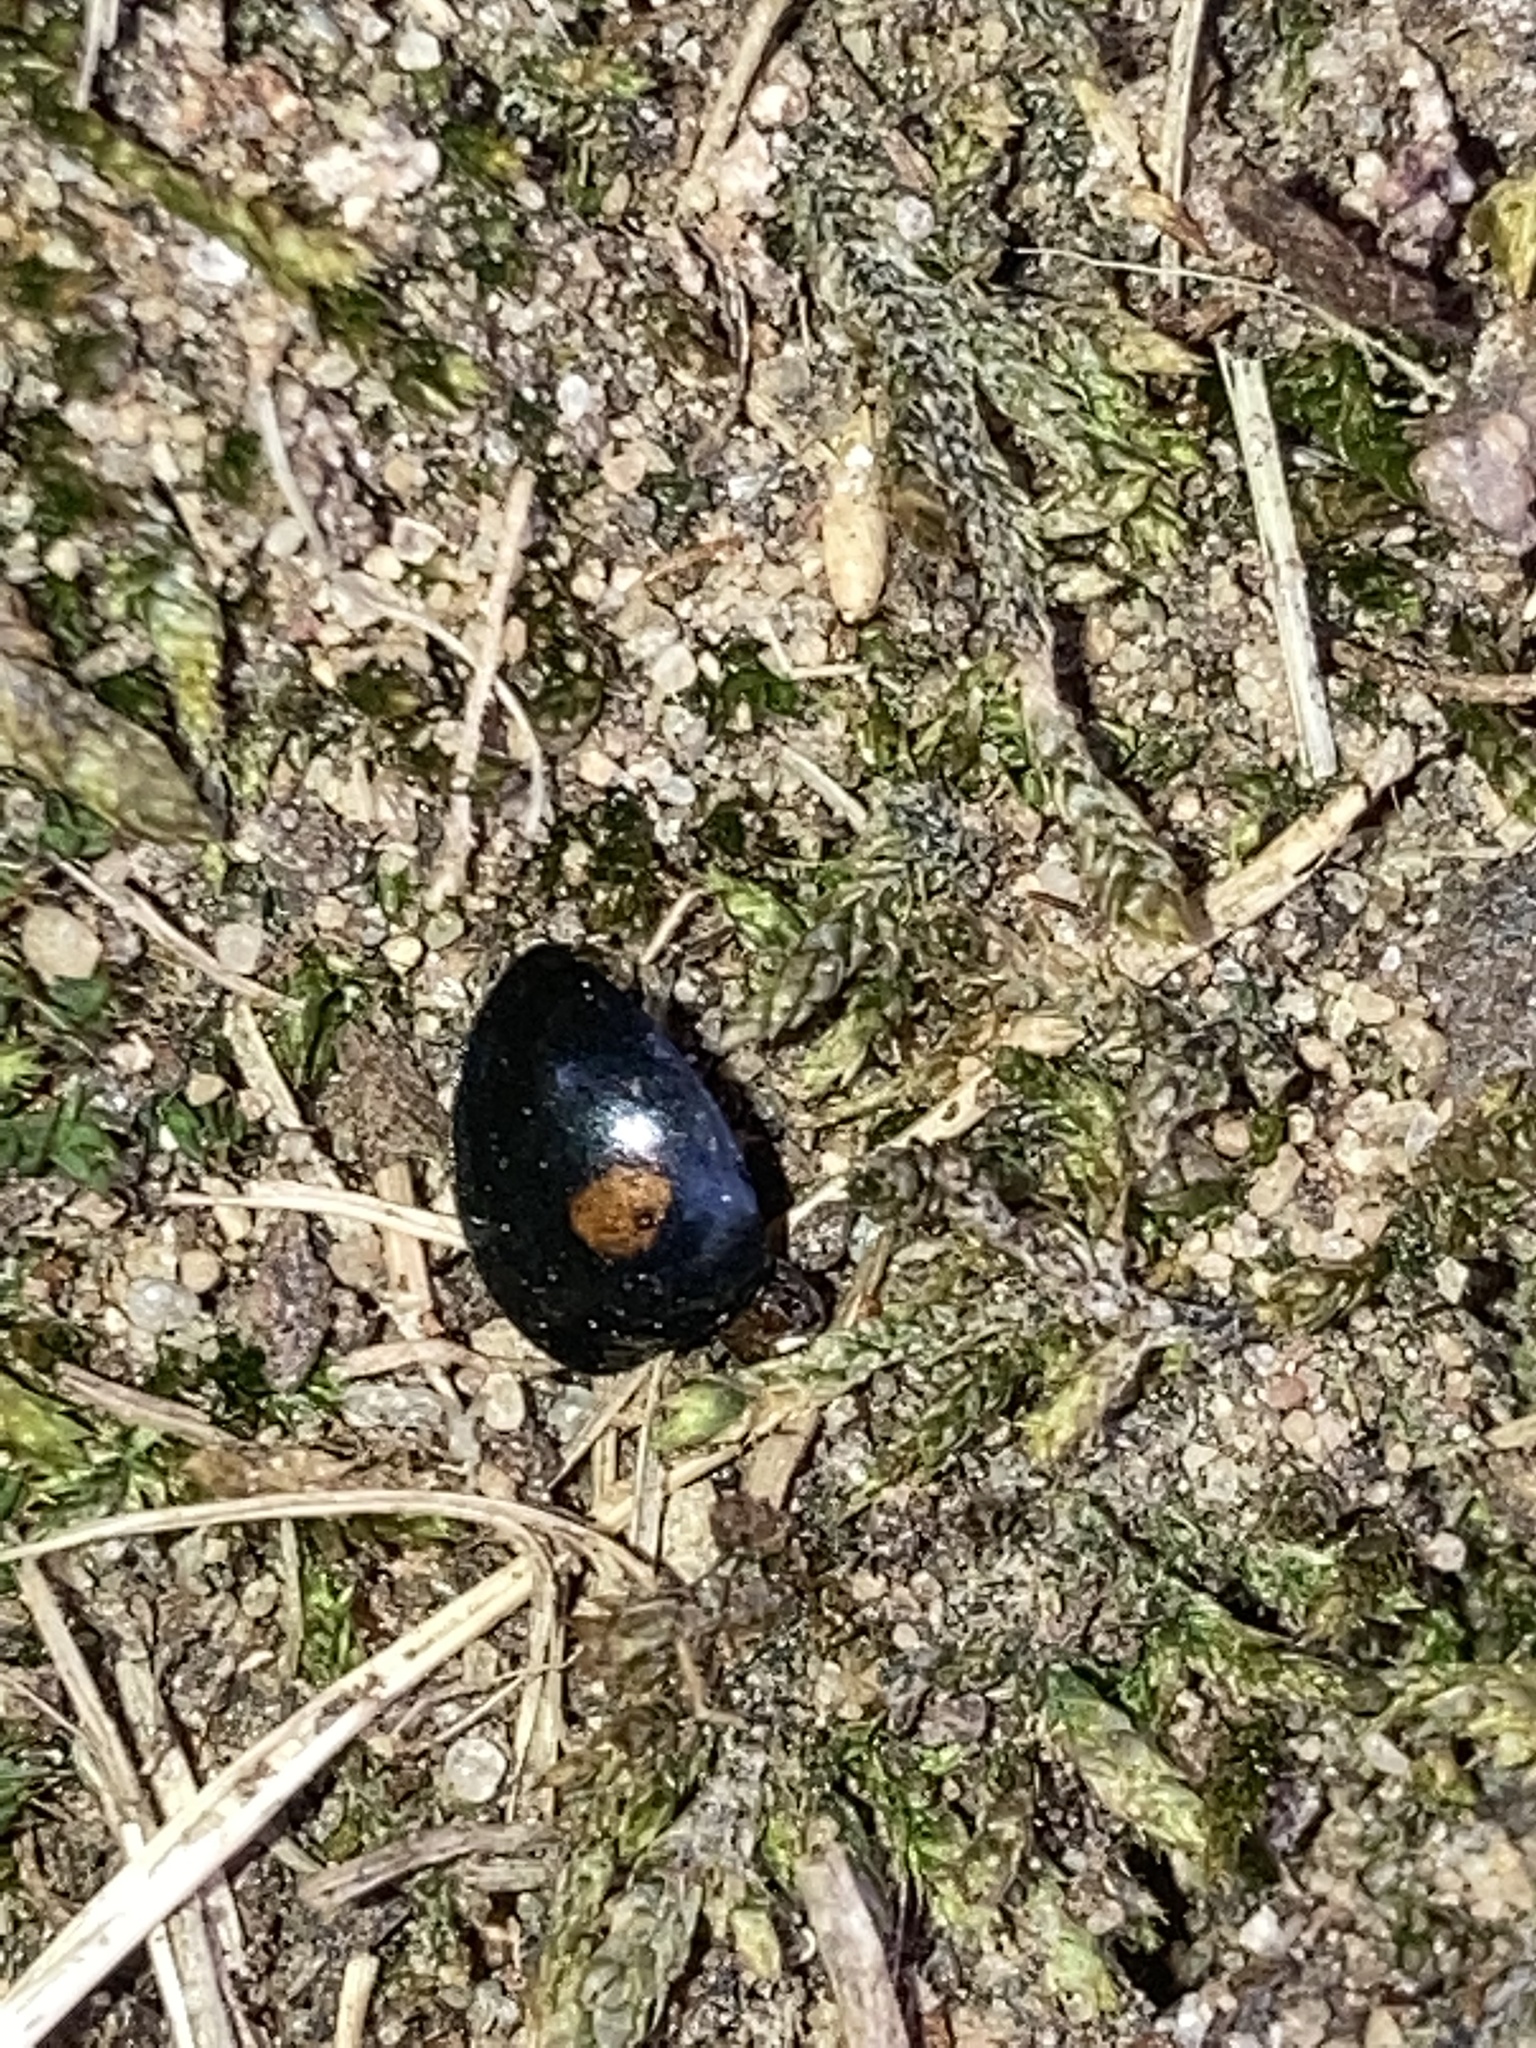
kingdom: Animalia
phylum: Arthropoda
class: Insecta
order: Coleoptera
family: Coccinellidae
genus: Chilocorus
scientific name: Chilocorus stigma
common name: Twicestabbed lady beetle
